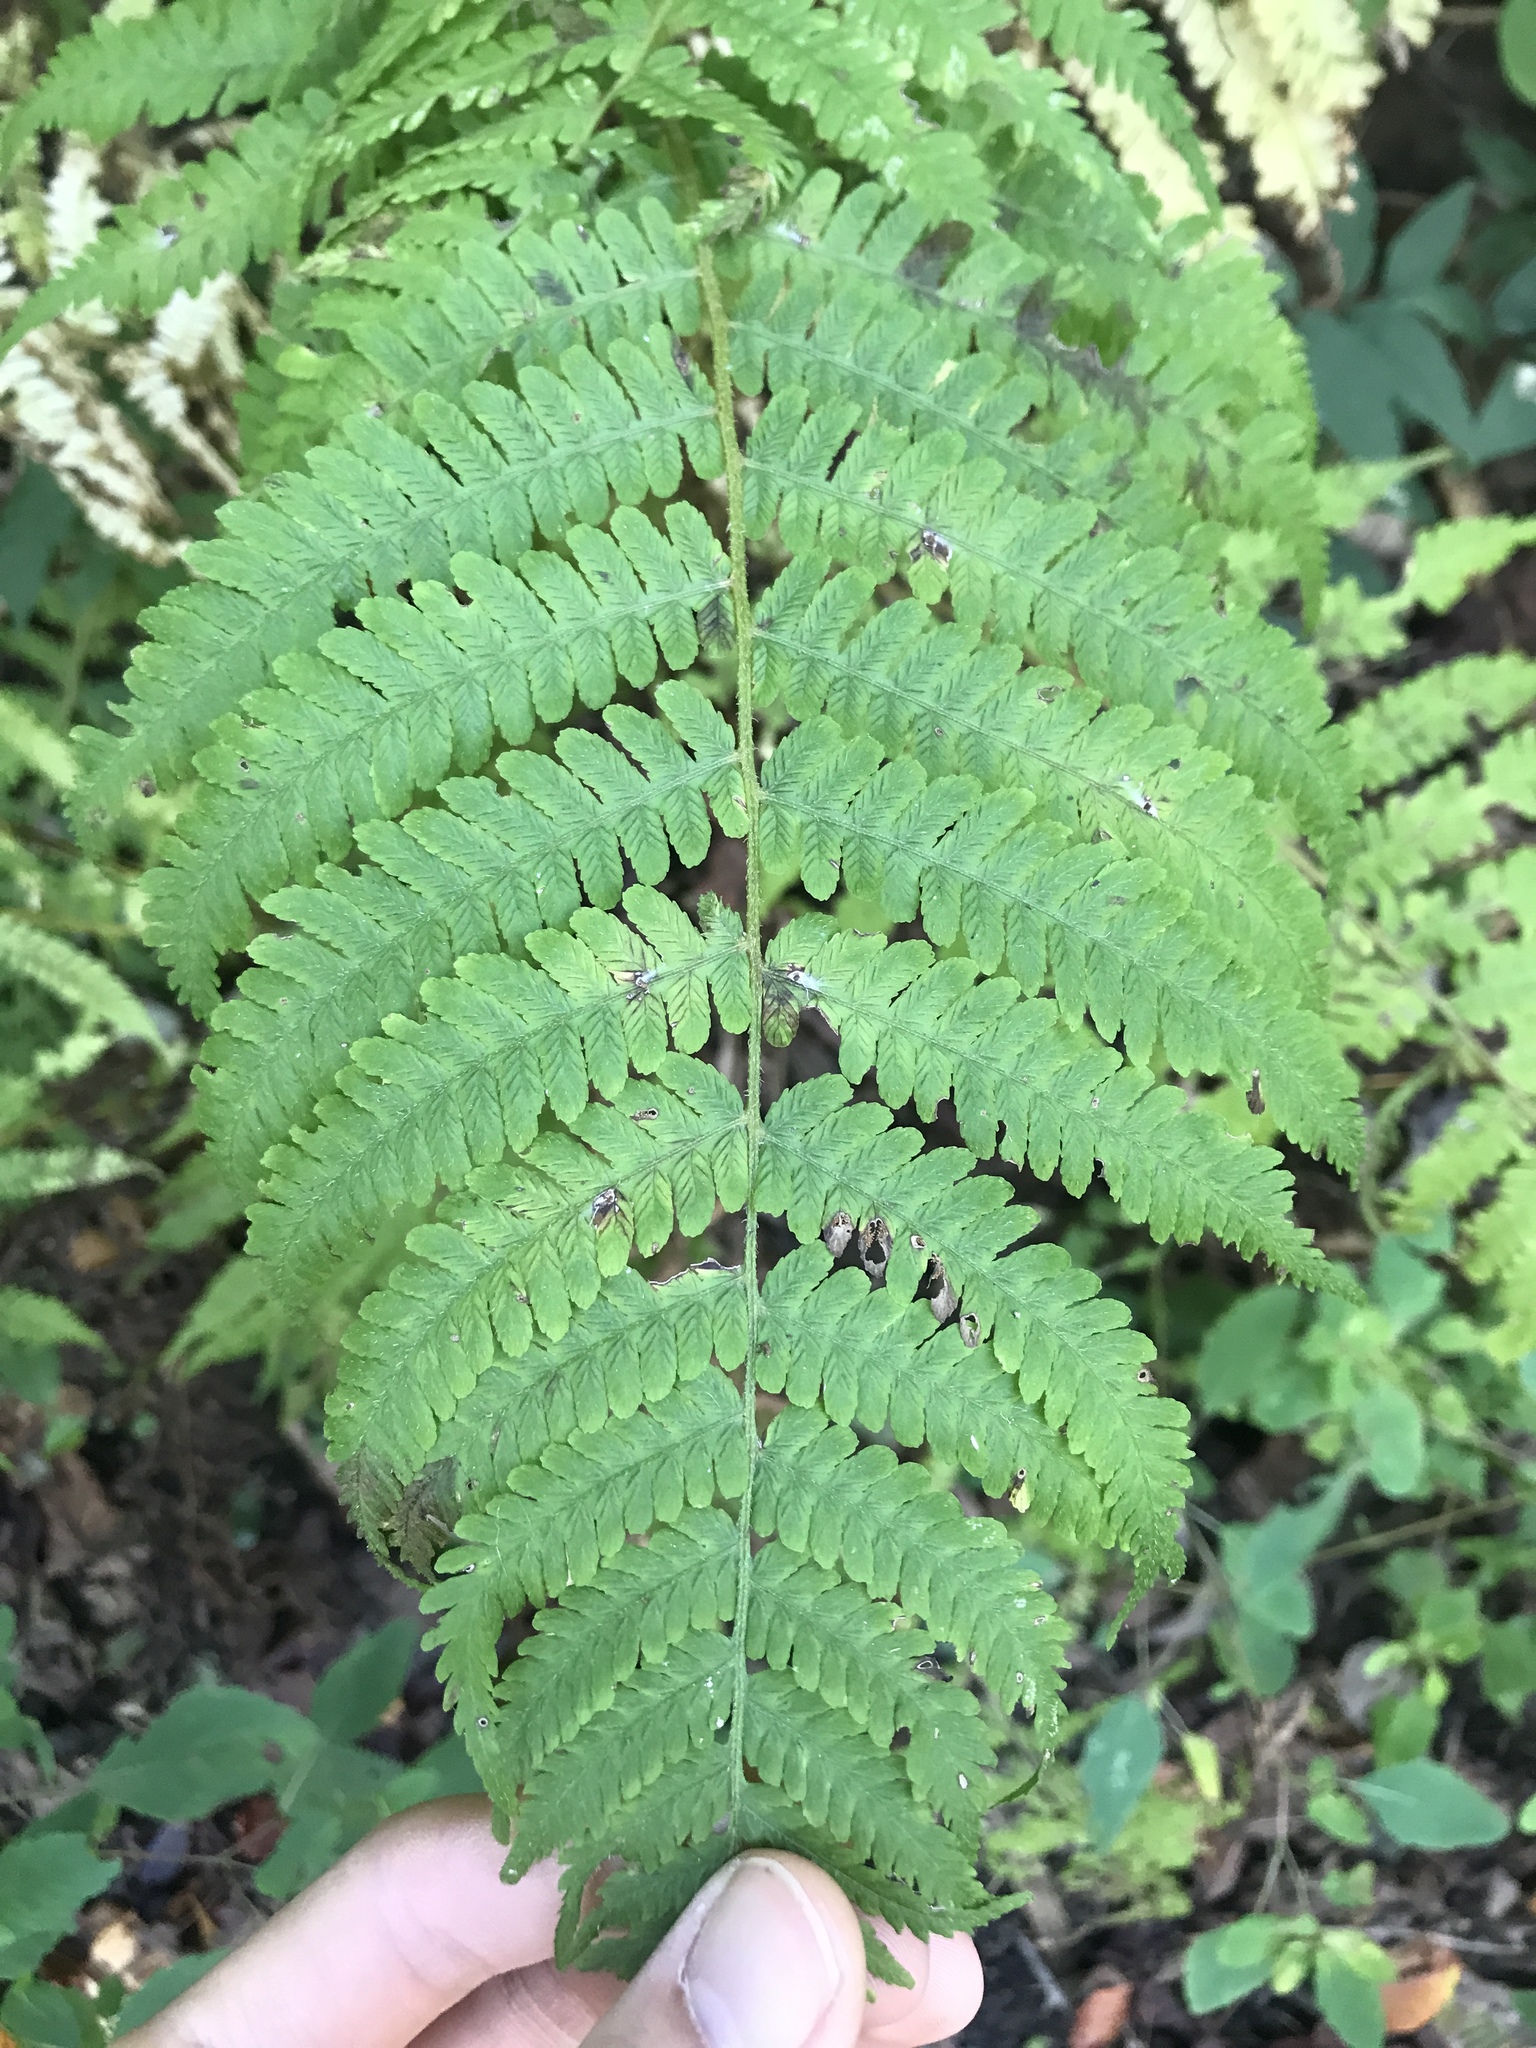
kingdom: Plantae
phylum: Tracheophyta
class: Polypodiopsida
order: Polypodiales
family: Athyriaceae
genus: Deparia
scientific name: Deparia acrostichoides
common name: Silver false spleenwort
